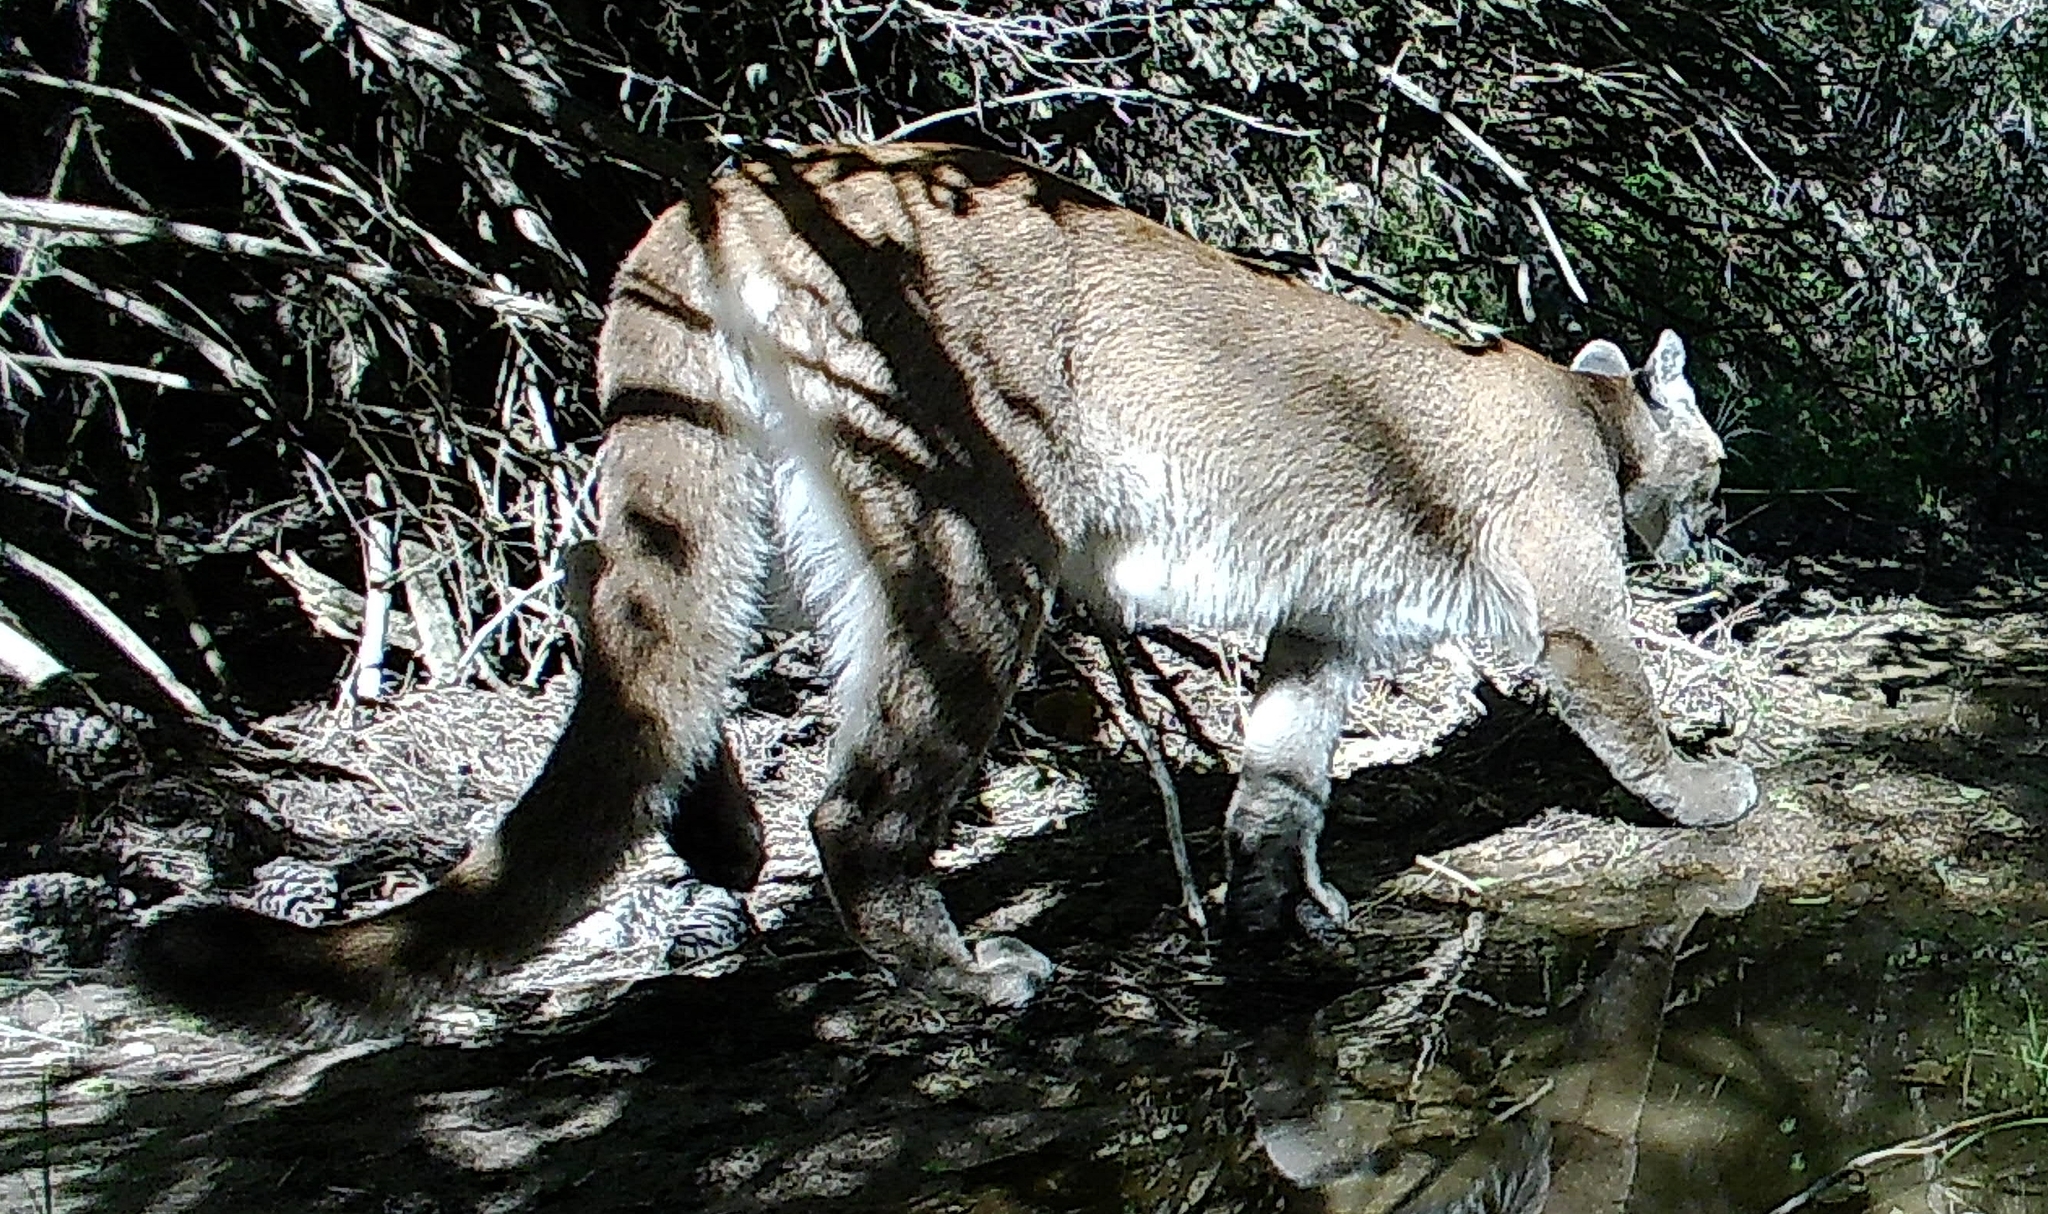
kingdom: Animalia
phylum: Chordata
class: Mammalia
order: Carnivora
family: Felidae
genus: Puma
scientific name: Puma concolor
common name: Puma
